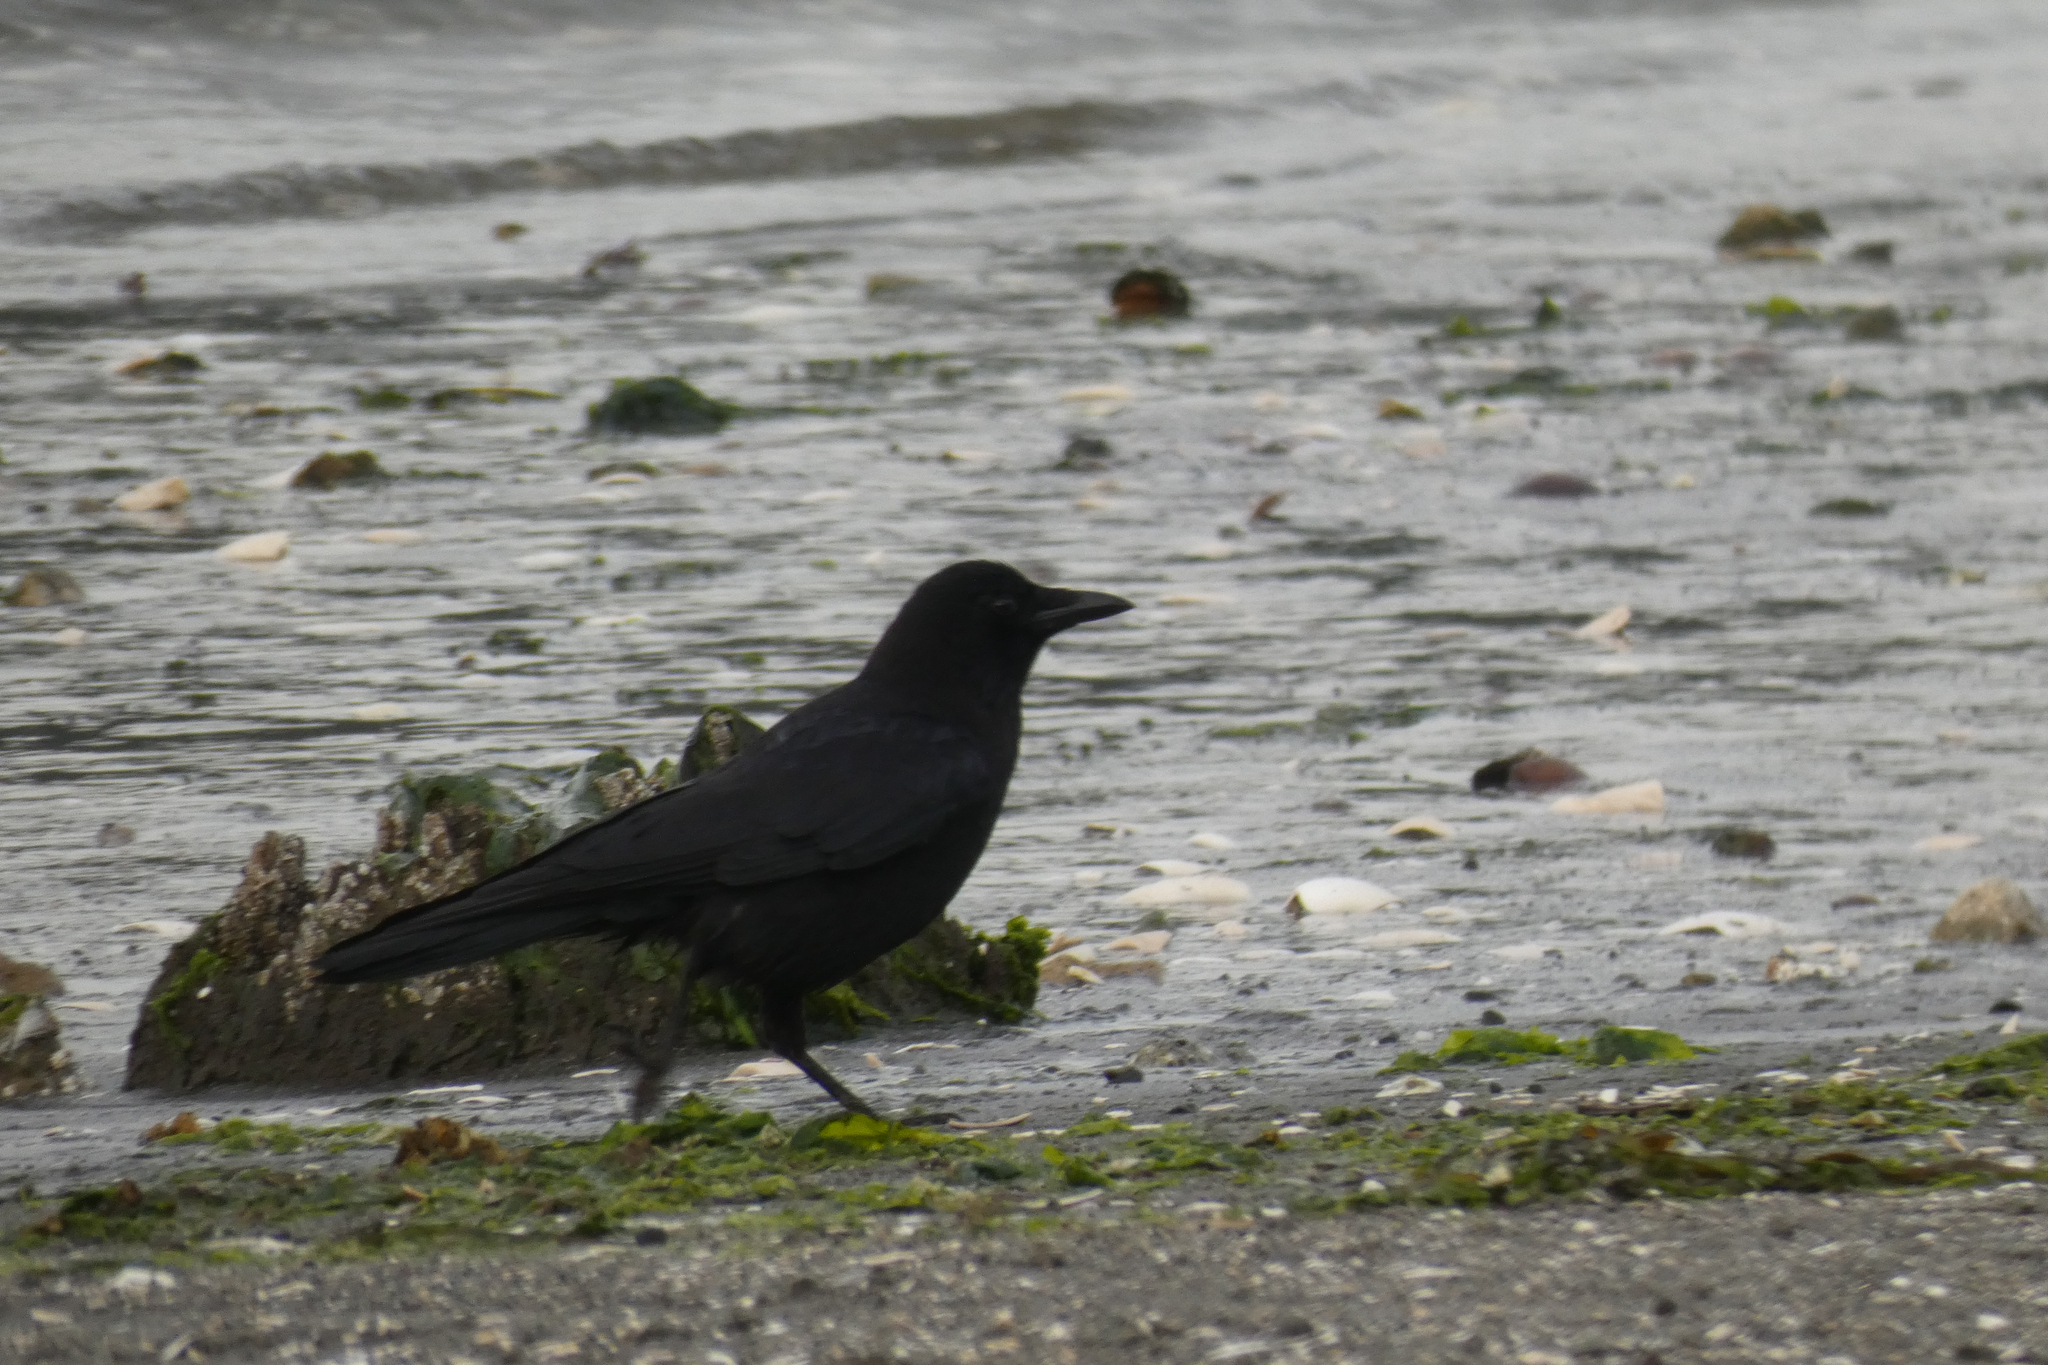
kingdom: Animalia
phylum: Chordata
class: Aves
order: Passeriformes
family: Corvidae
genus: Corvus
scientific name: Corvus brachyrhynchos
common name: American crow
